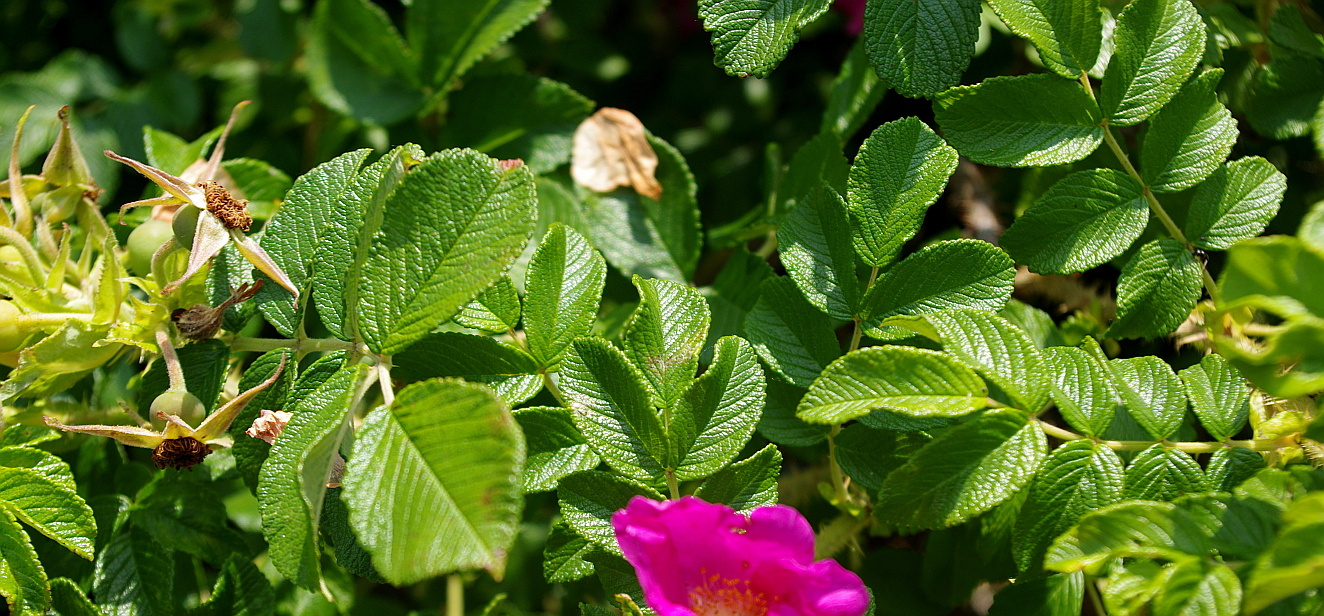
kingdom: Plantae
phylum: Tracheophyta
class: Magnoliopsida
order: Rosales
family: Rosaceae
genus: Rosa
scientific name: Rosa rugosa
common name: Japanese rose
